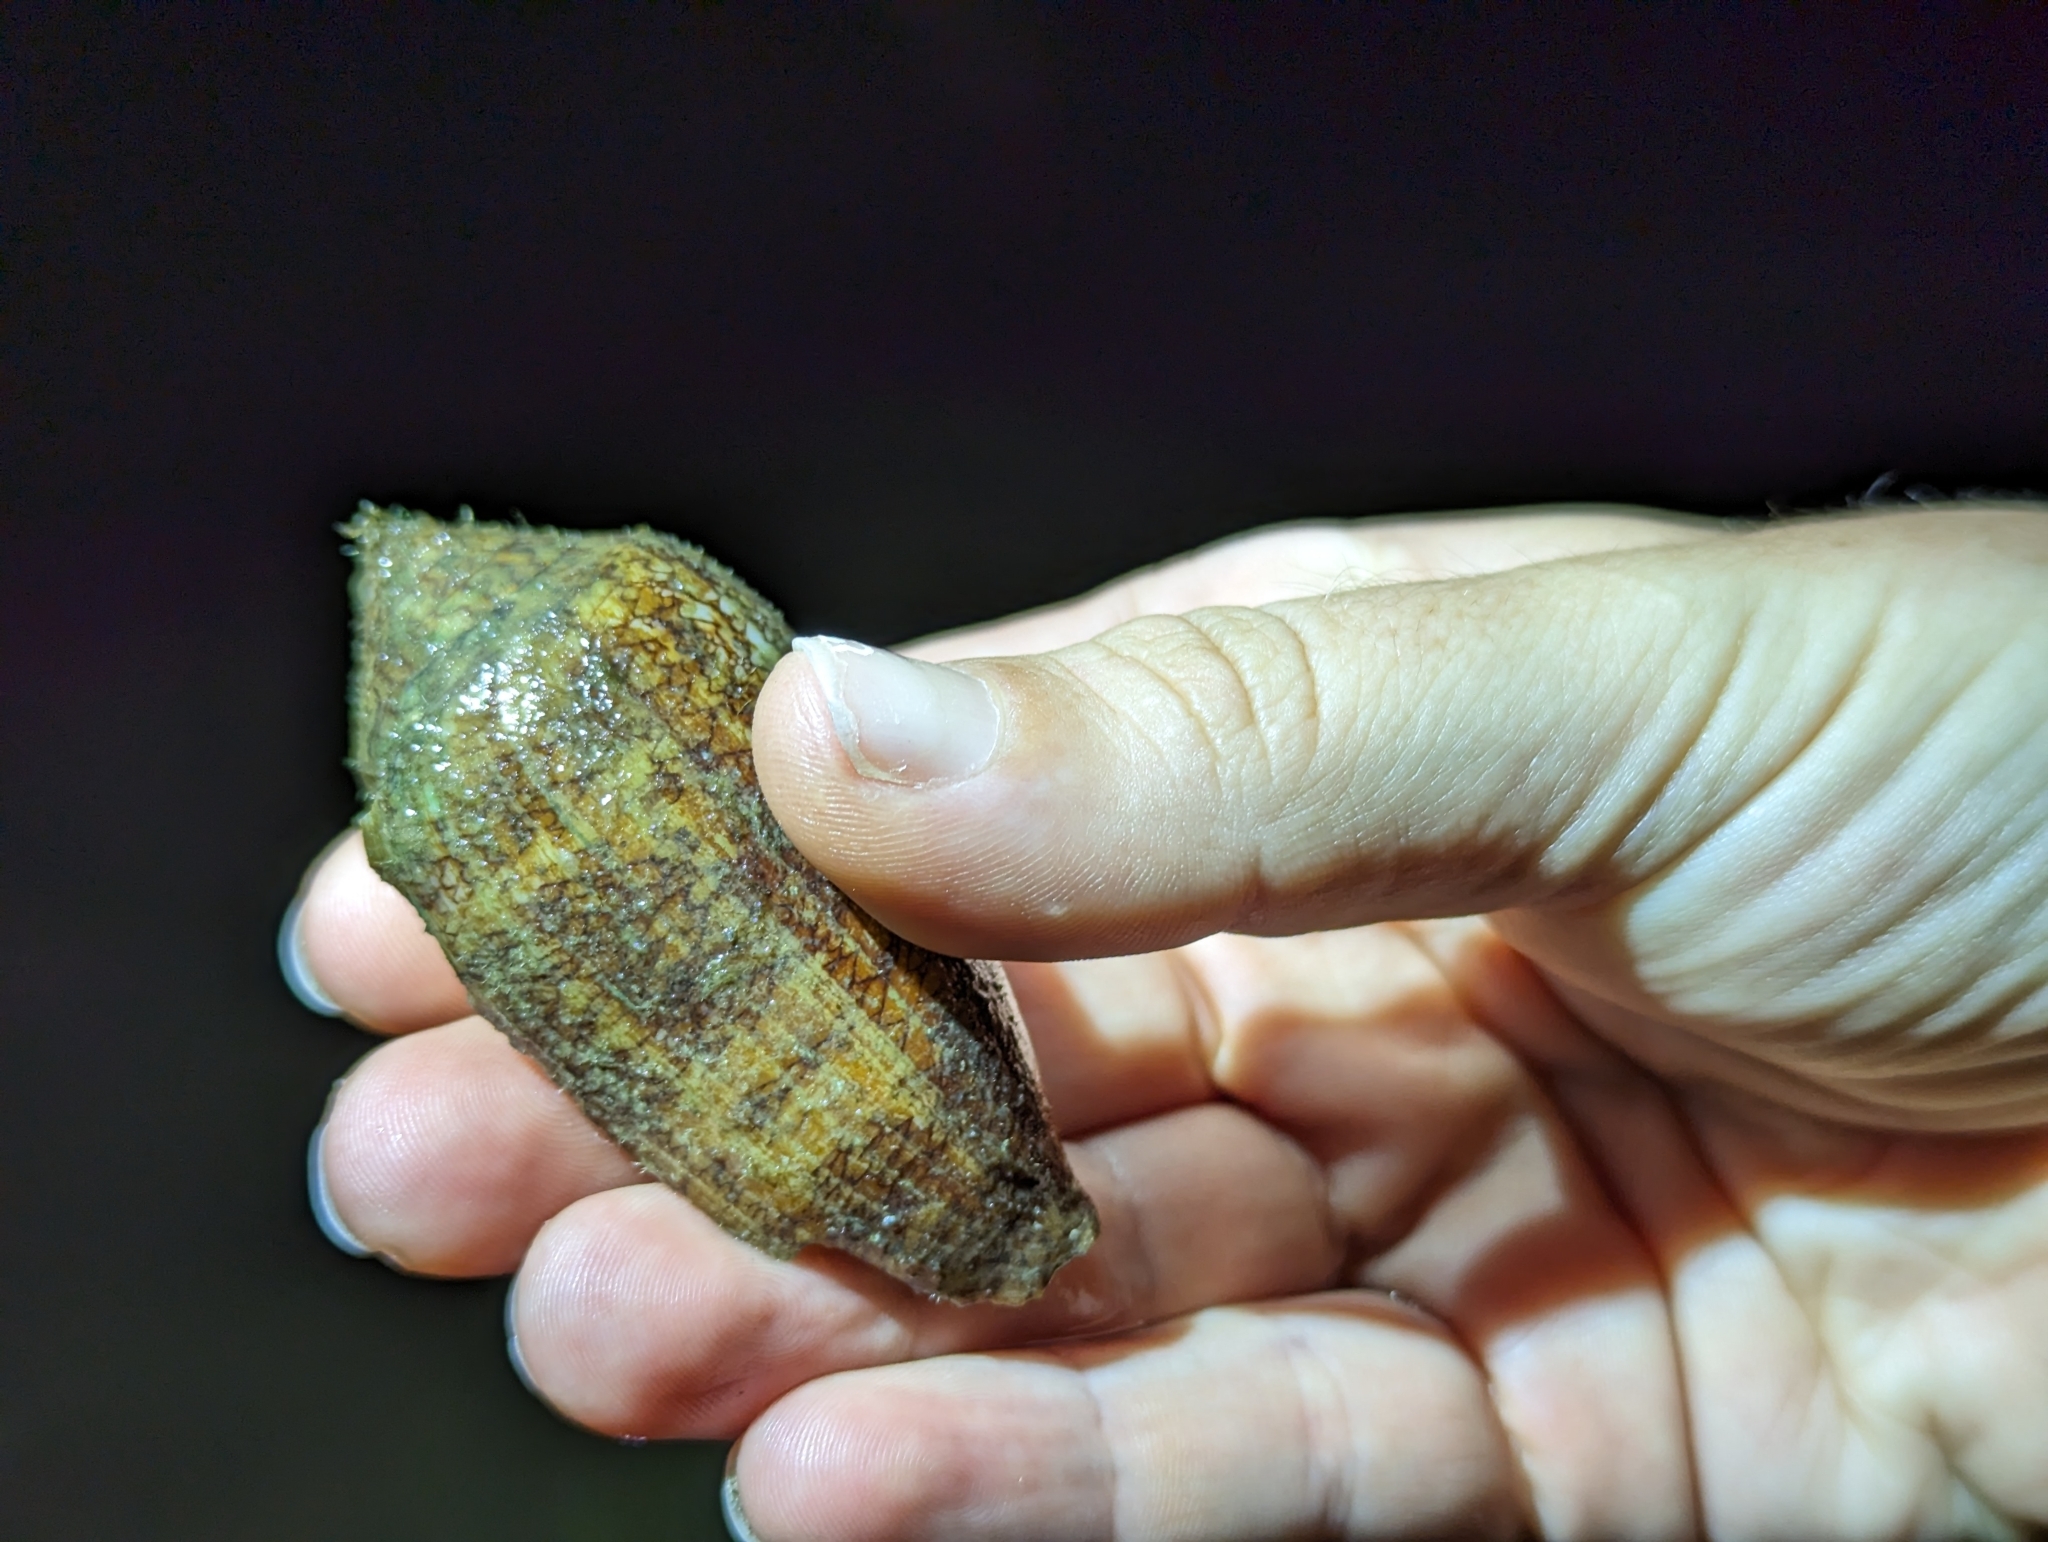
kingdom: Animalia
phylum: Mollusca
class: Gastropoda
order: Neogastropoda
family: Conidae
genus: Conus
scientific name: Conus textile
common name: Cloth-of-gold cone
